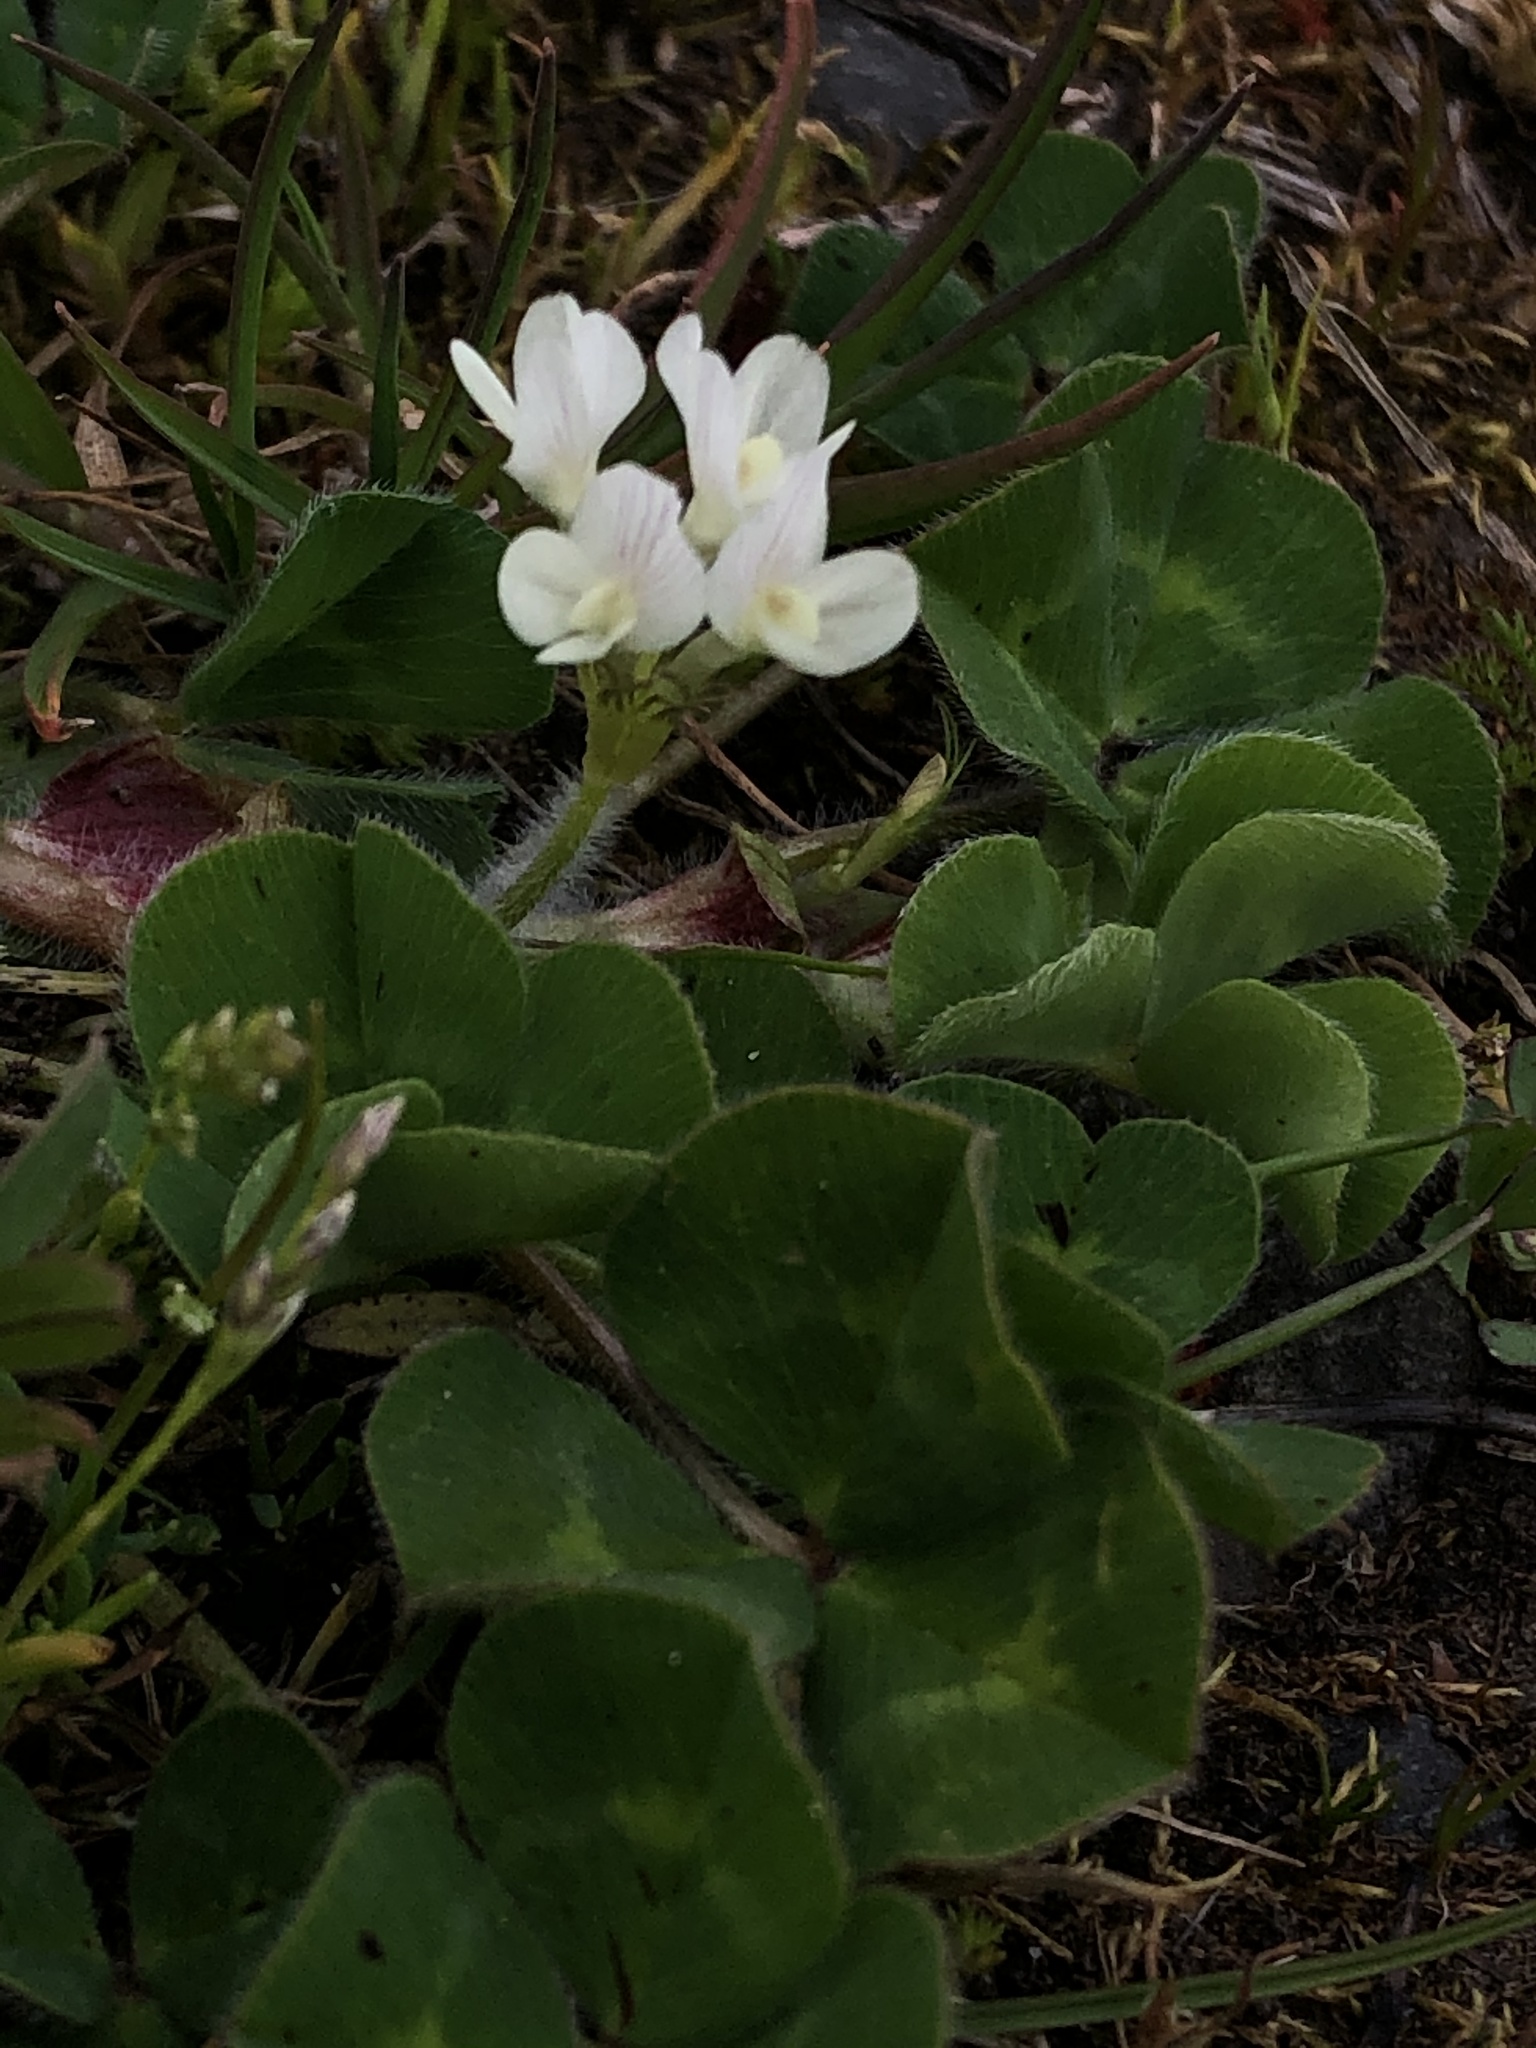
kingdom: Plantae
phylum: Tracheophyta
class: Magnoliopsida
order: Fabales
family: Fabaceae
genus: Trifolium
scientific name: Trifolium subterraneum
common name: Subterranean clover
